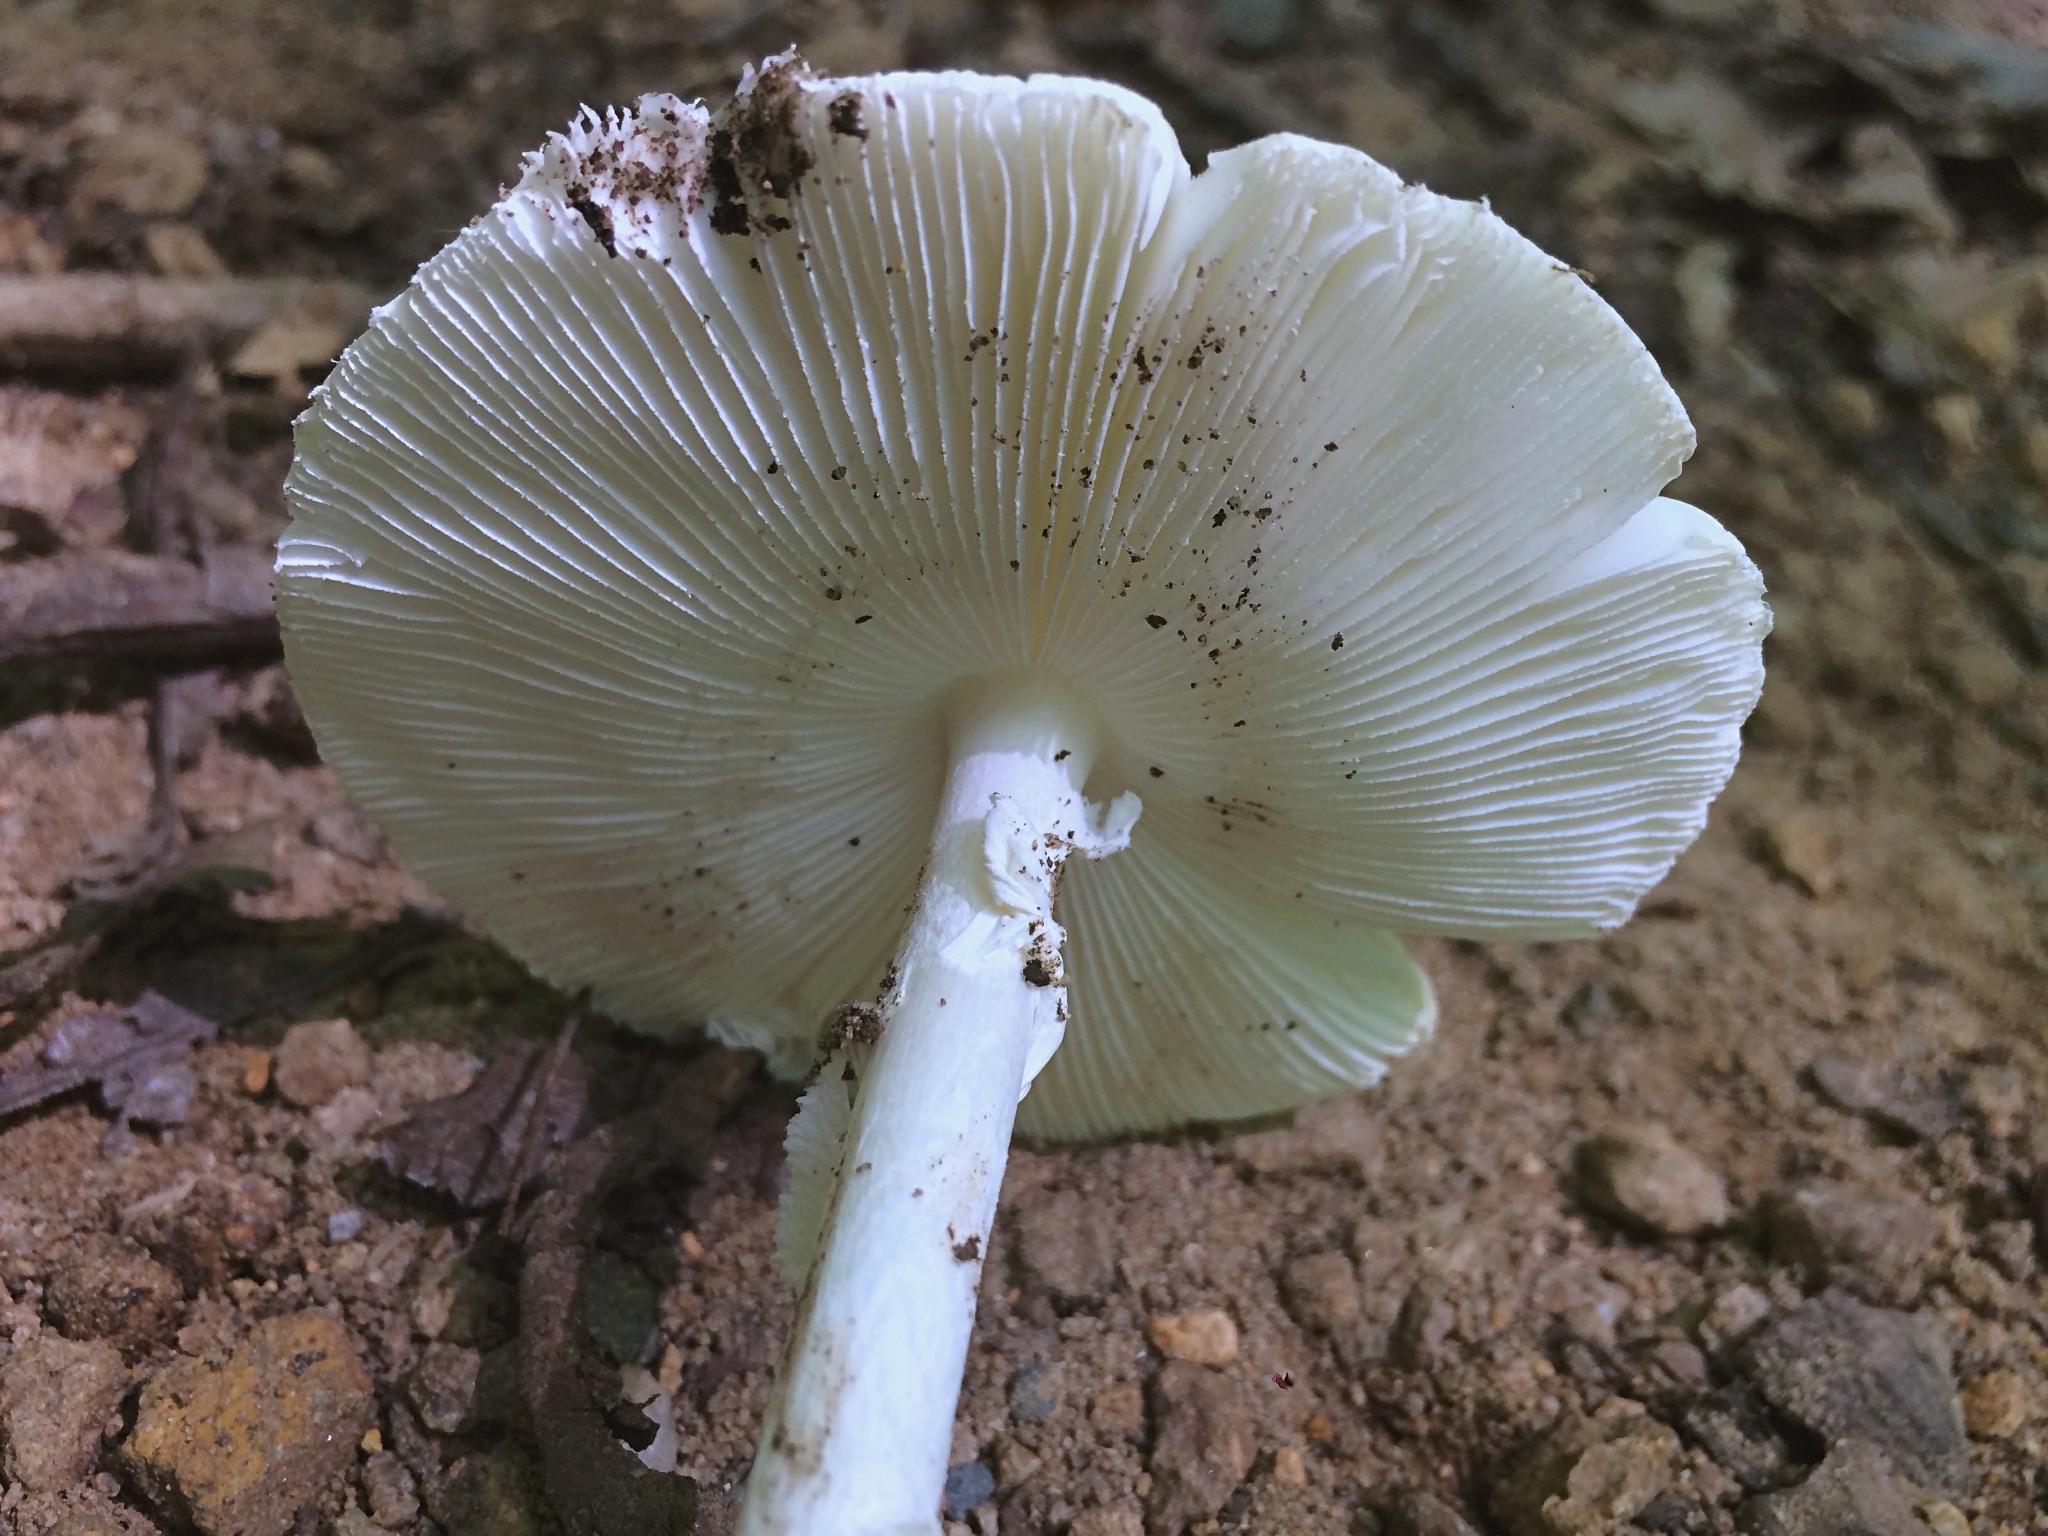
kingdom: Fungi
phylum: Basidiomycota
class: Agaricomycetes
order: Agaricales
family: Amanitaceae
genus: Amanita
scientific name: Amanita bisporigera
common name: Eastern north american destroying angel
